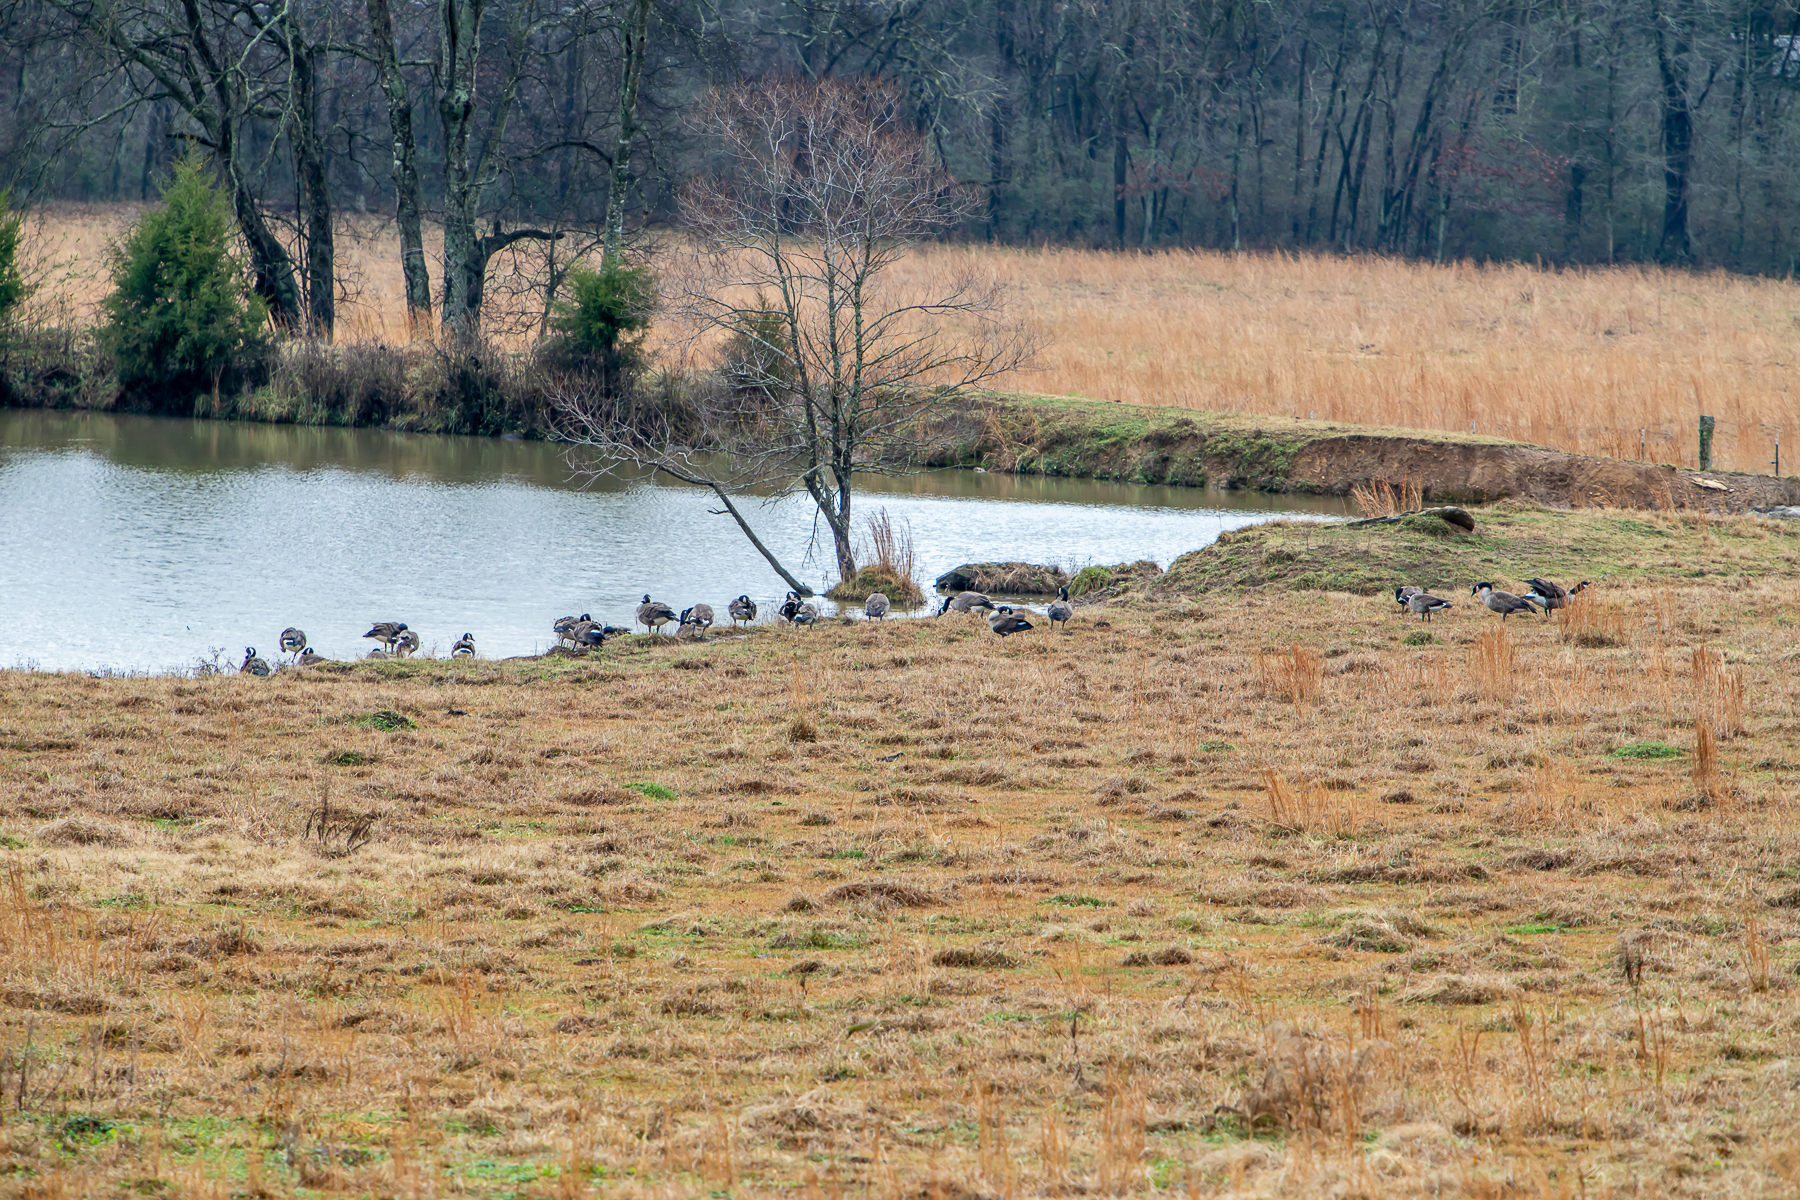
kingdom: Animalia
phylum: Chordata
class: Aves
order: Anseriformes
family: Anatidae
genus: Branta
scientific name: Branta canadensis
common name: Canada goose
